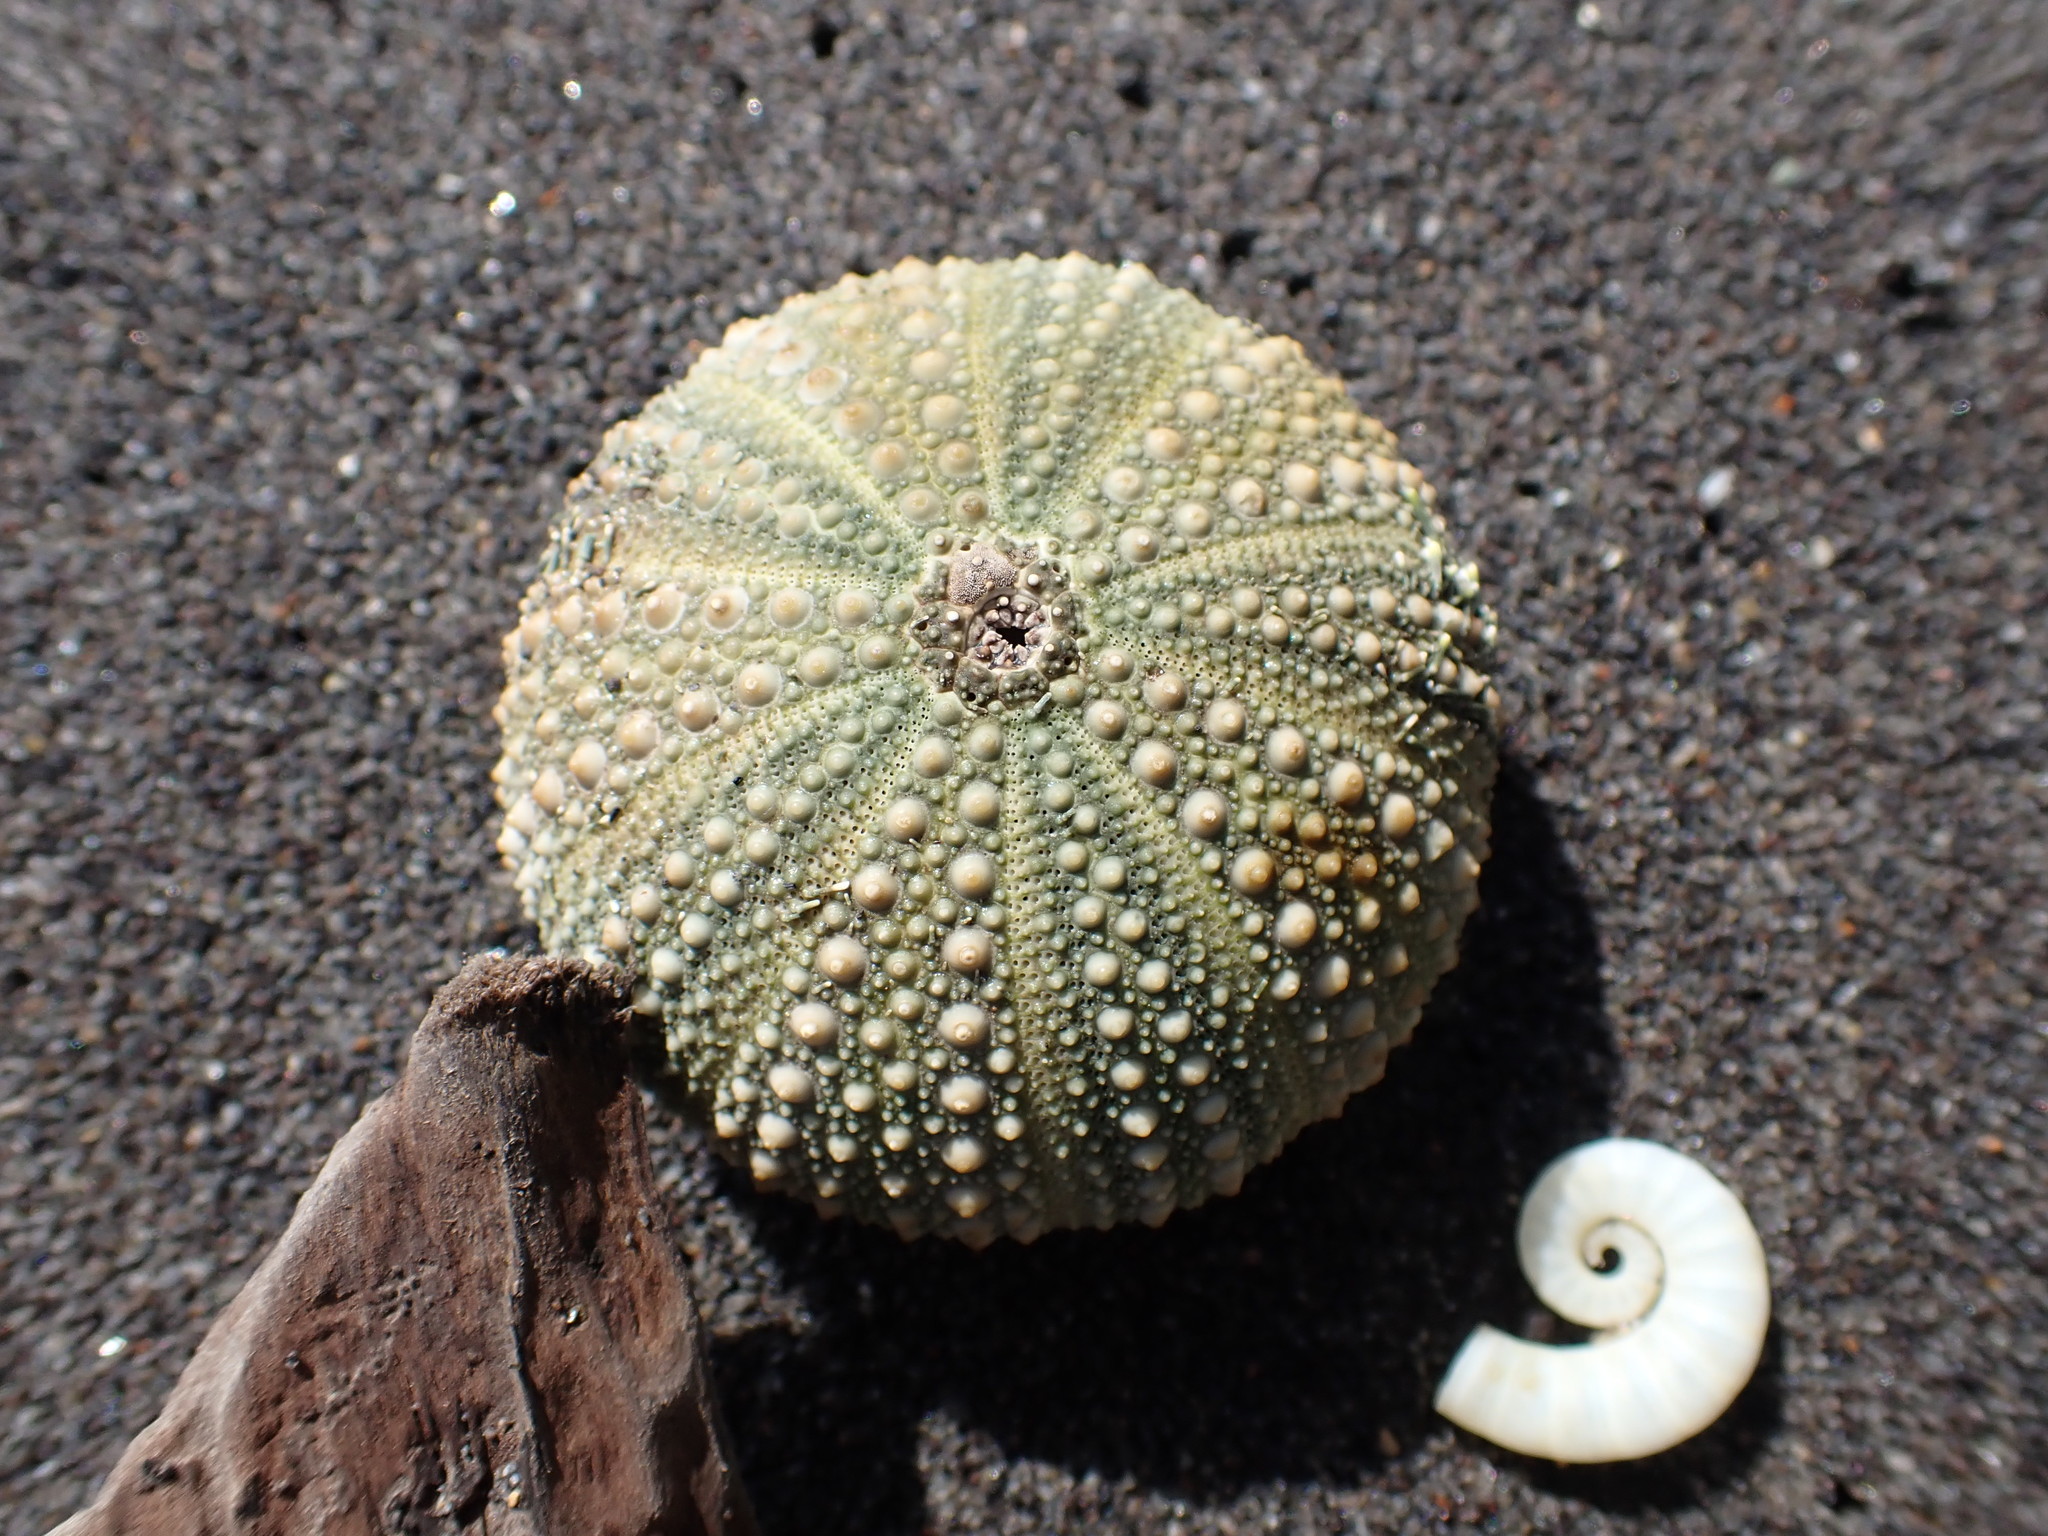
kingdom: Animalia
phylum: Echinodermata
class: Echinoidea
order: Camarodonta
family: Echinometridae
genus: Evechinus
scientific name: Evechinus chloroticus
